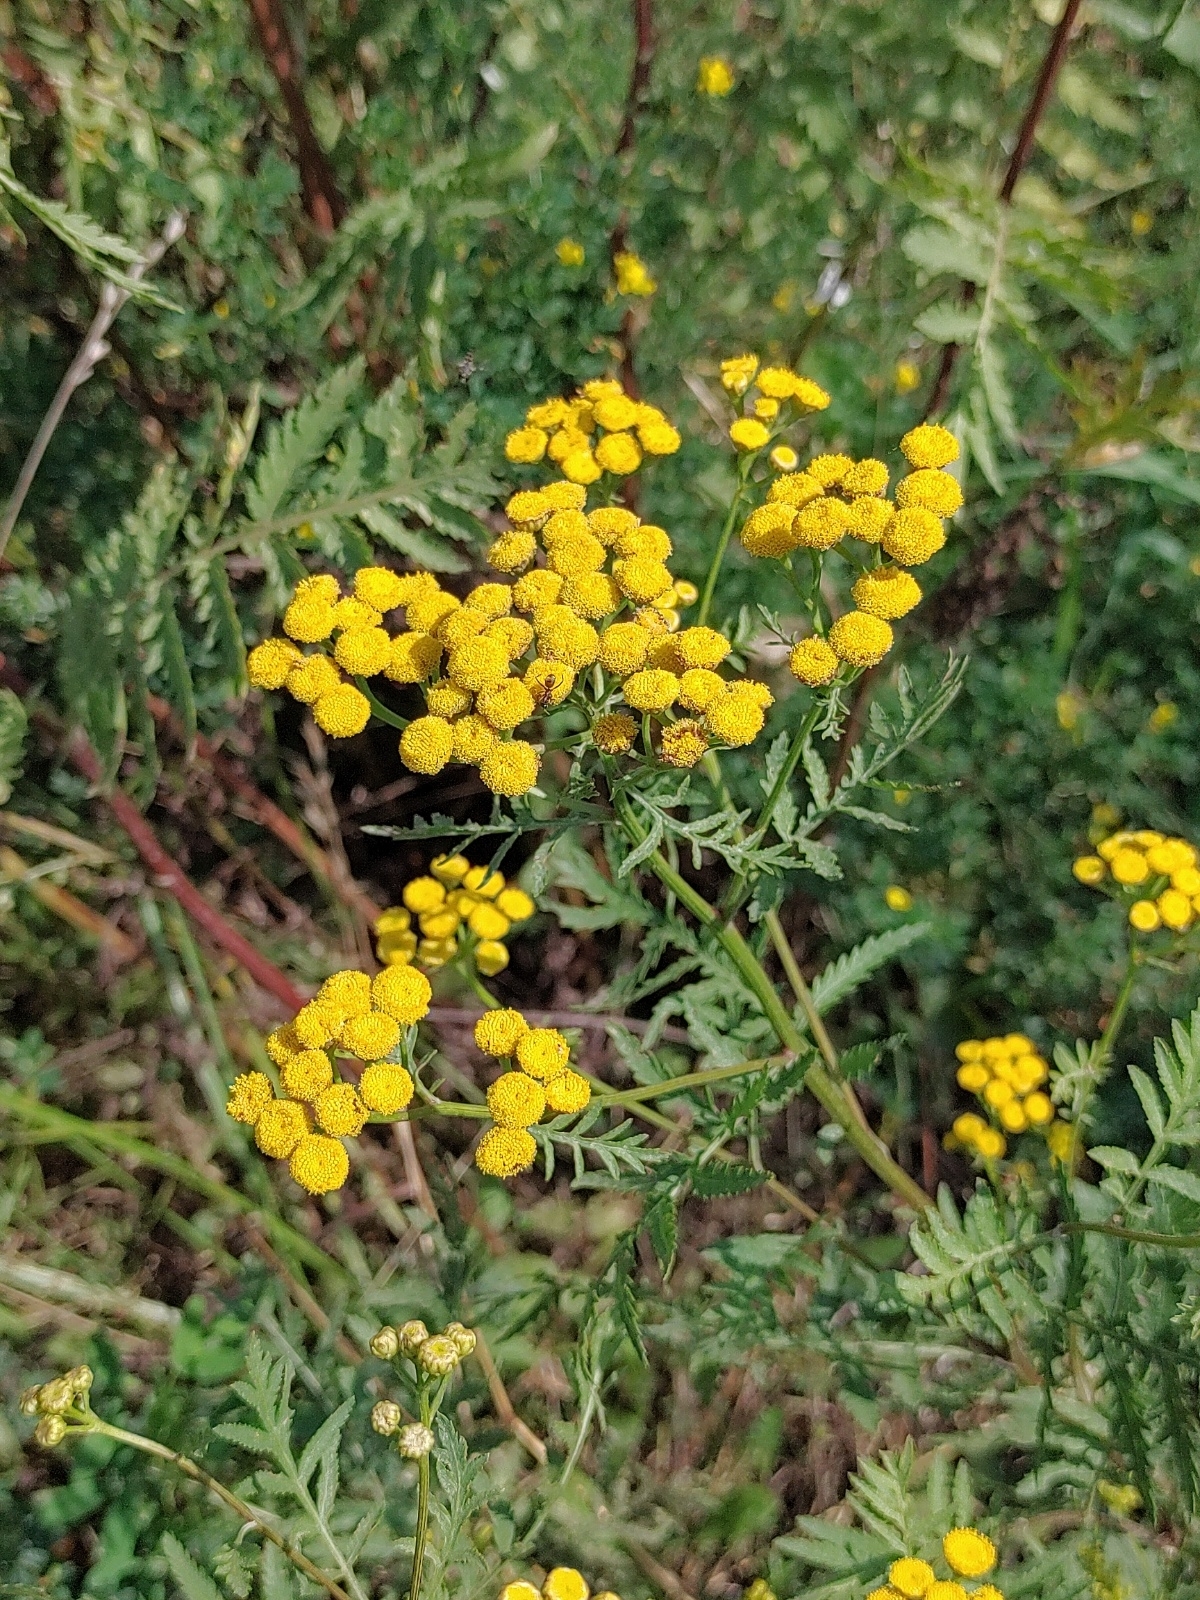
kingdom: Plantae
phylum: Tracheophyta
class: Magnoliopsida
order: Asterales
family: Asteraceae
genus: Tanacetum
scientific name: Tanacetum vulgare
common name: Common tansy
